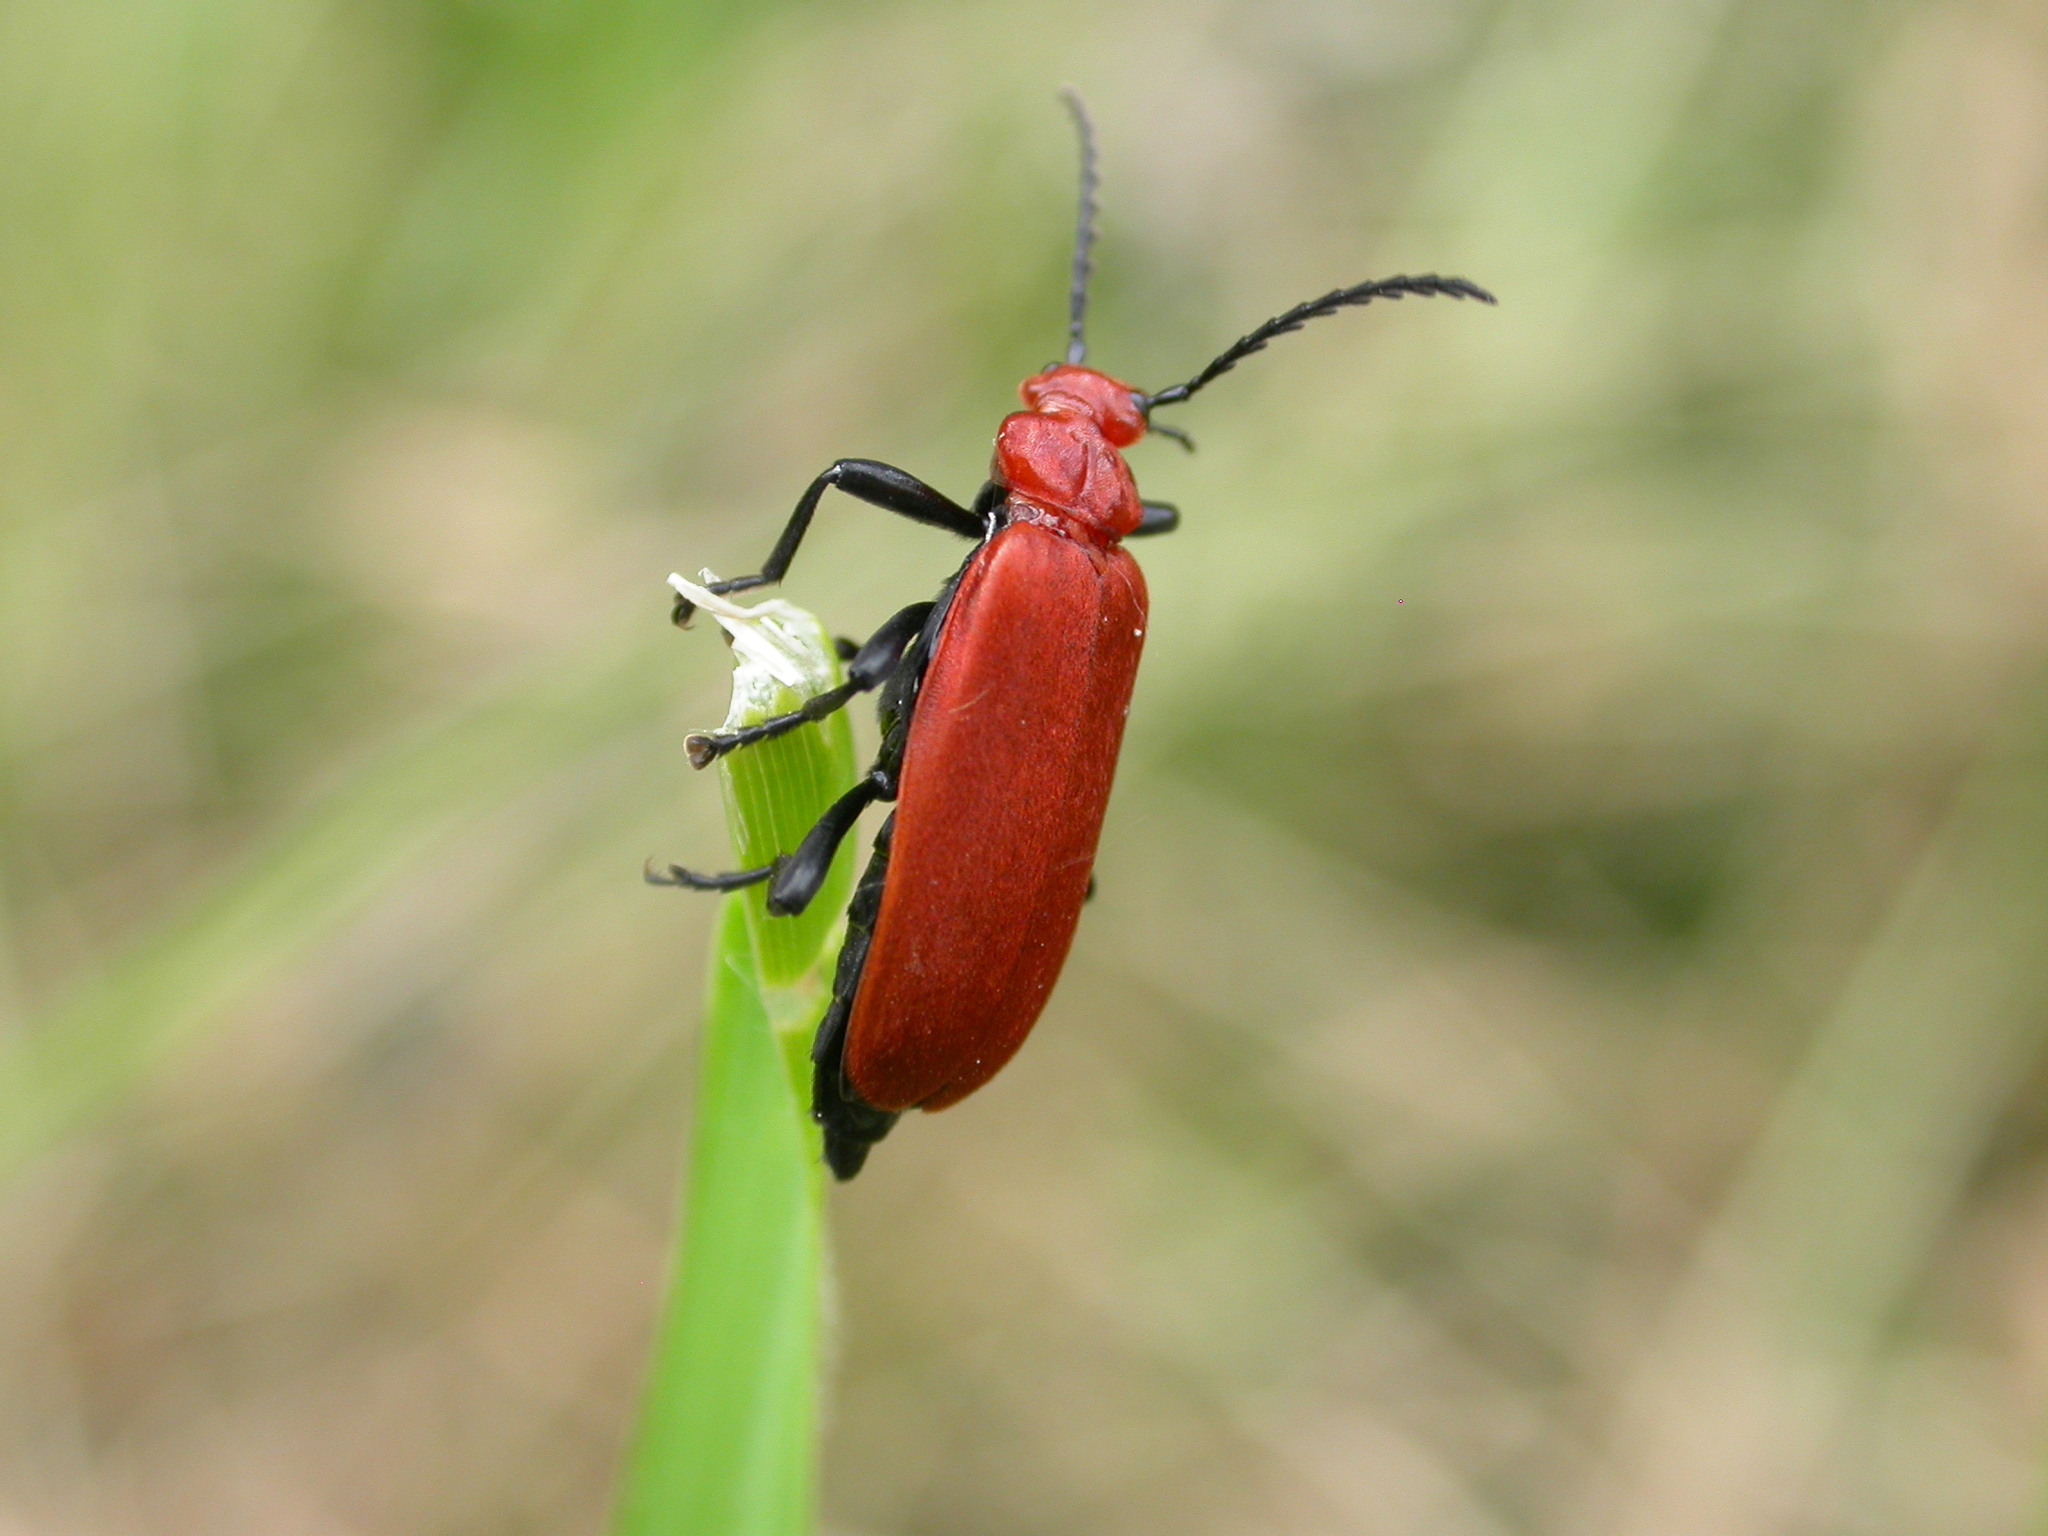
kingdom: Animalia
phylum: Arthropoda
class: Insecta
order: Coleoptera
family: Pyrochroidae
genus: Pyrochroa
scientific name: Pyrochroa serraticornis
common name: Red-headed cardinal beetle
